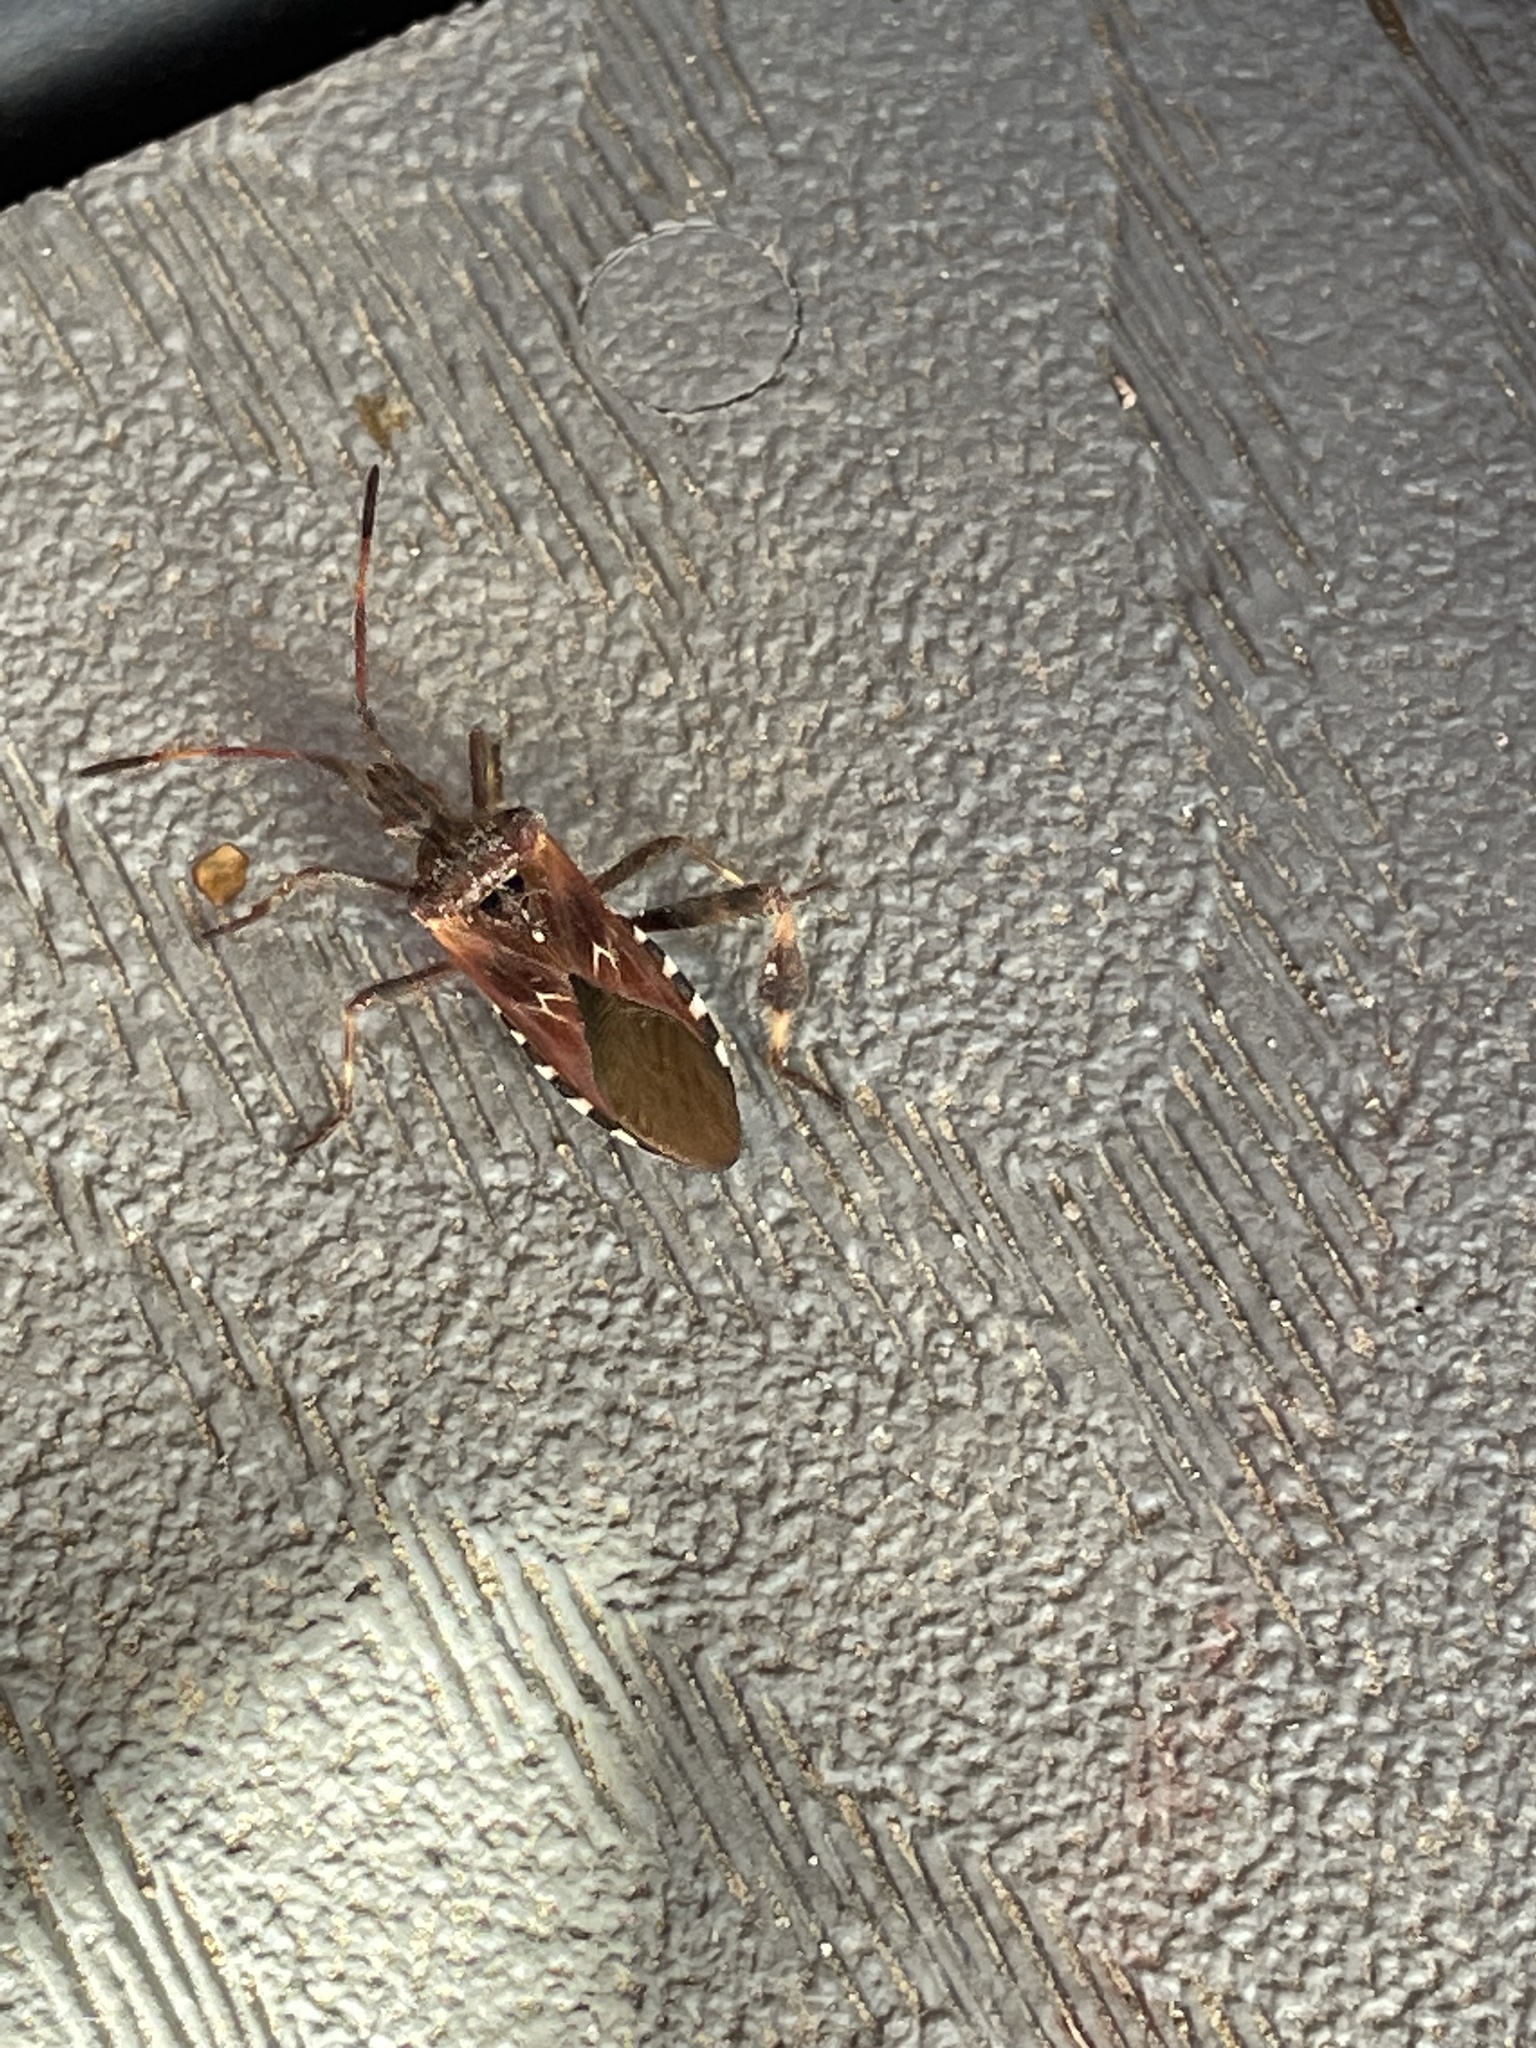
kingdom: Animalia
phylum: Arthropoda
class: Insecta
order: Hemiptera
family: Coreidae
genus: Leptoglossus
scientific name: Leptoglossus occidentalis
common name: Western conifer-seed bug
